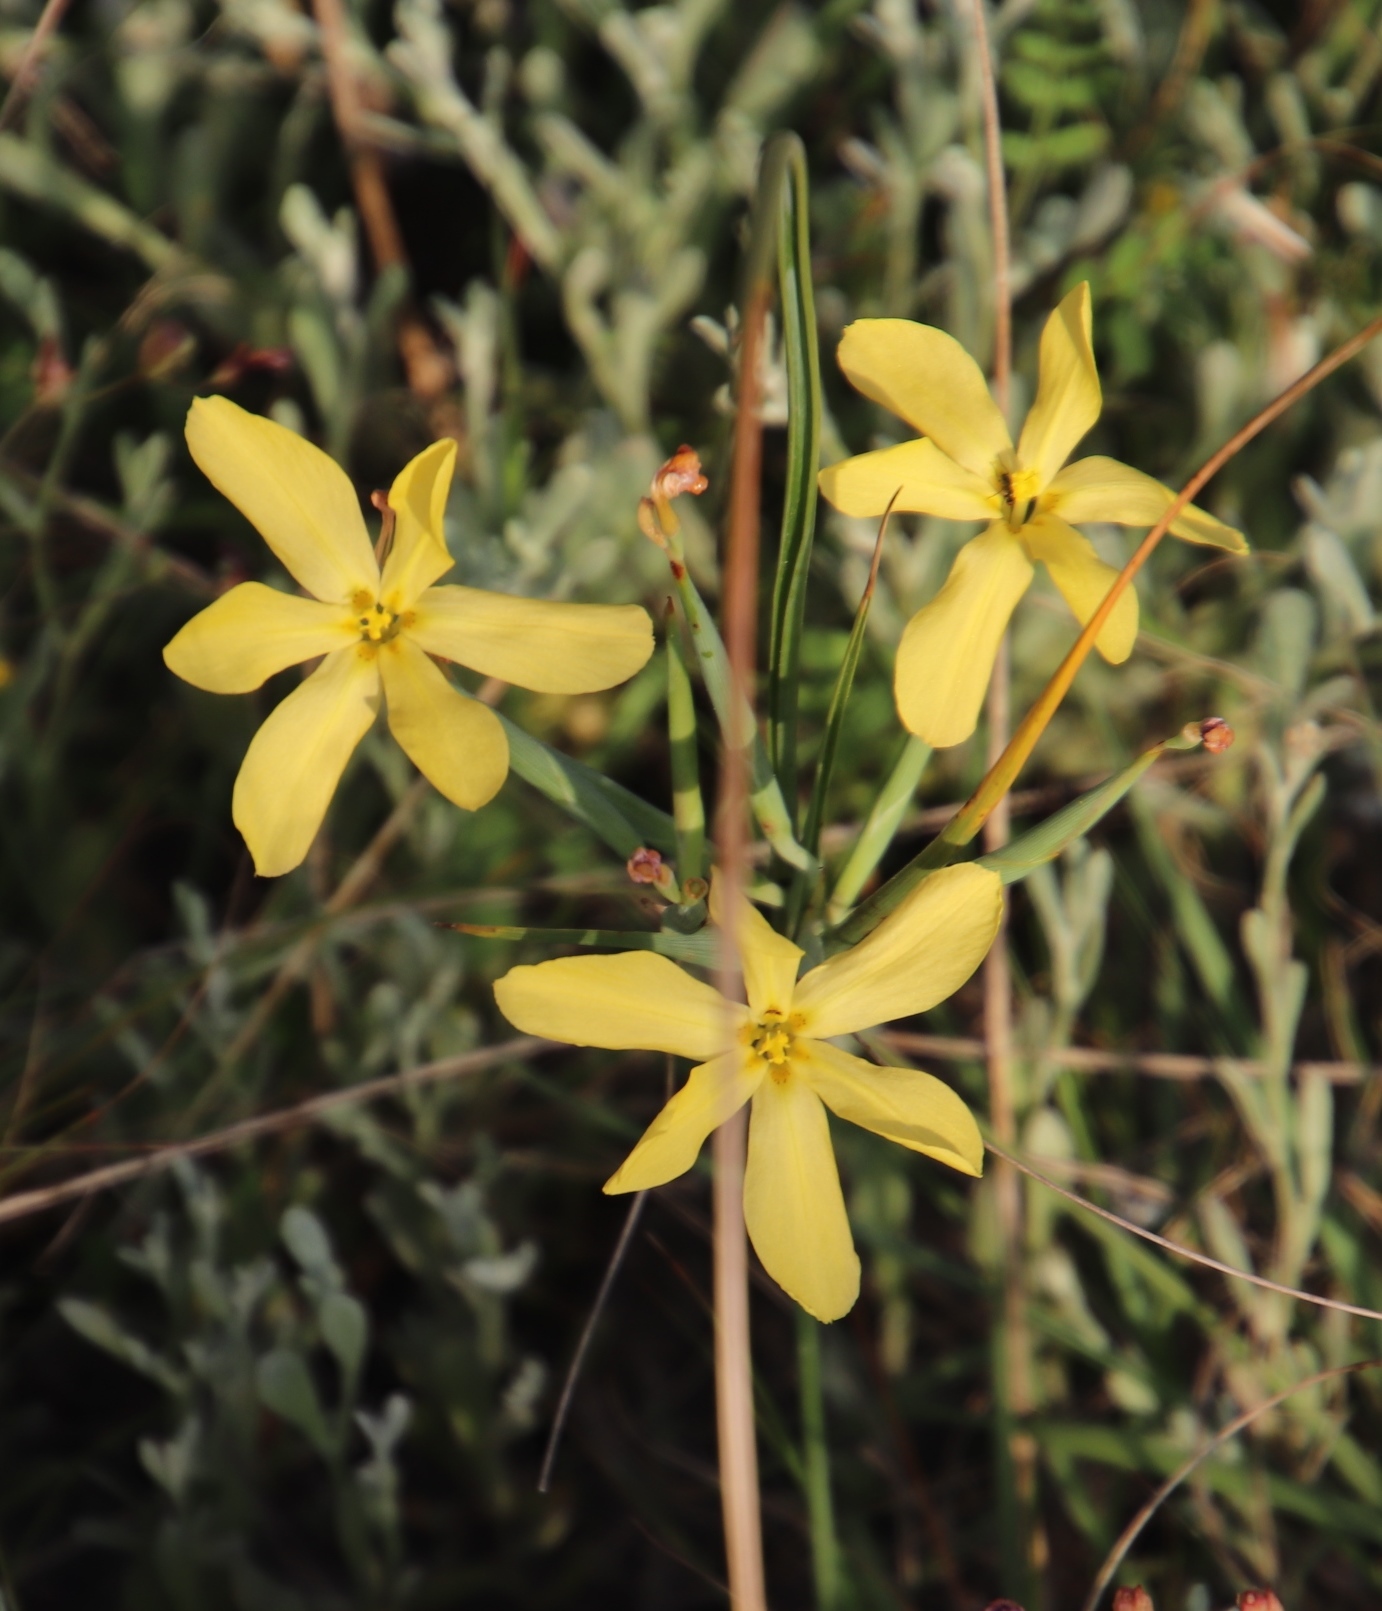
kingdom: Plantae
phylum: Tracheophyta
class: Liliopsida
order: Asparagales
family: Iridaceae
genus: Moraea
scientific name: Moraea lewisiae
